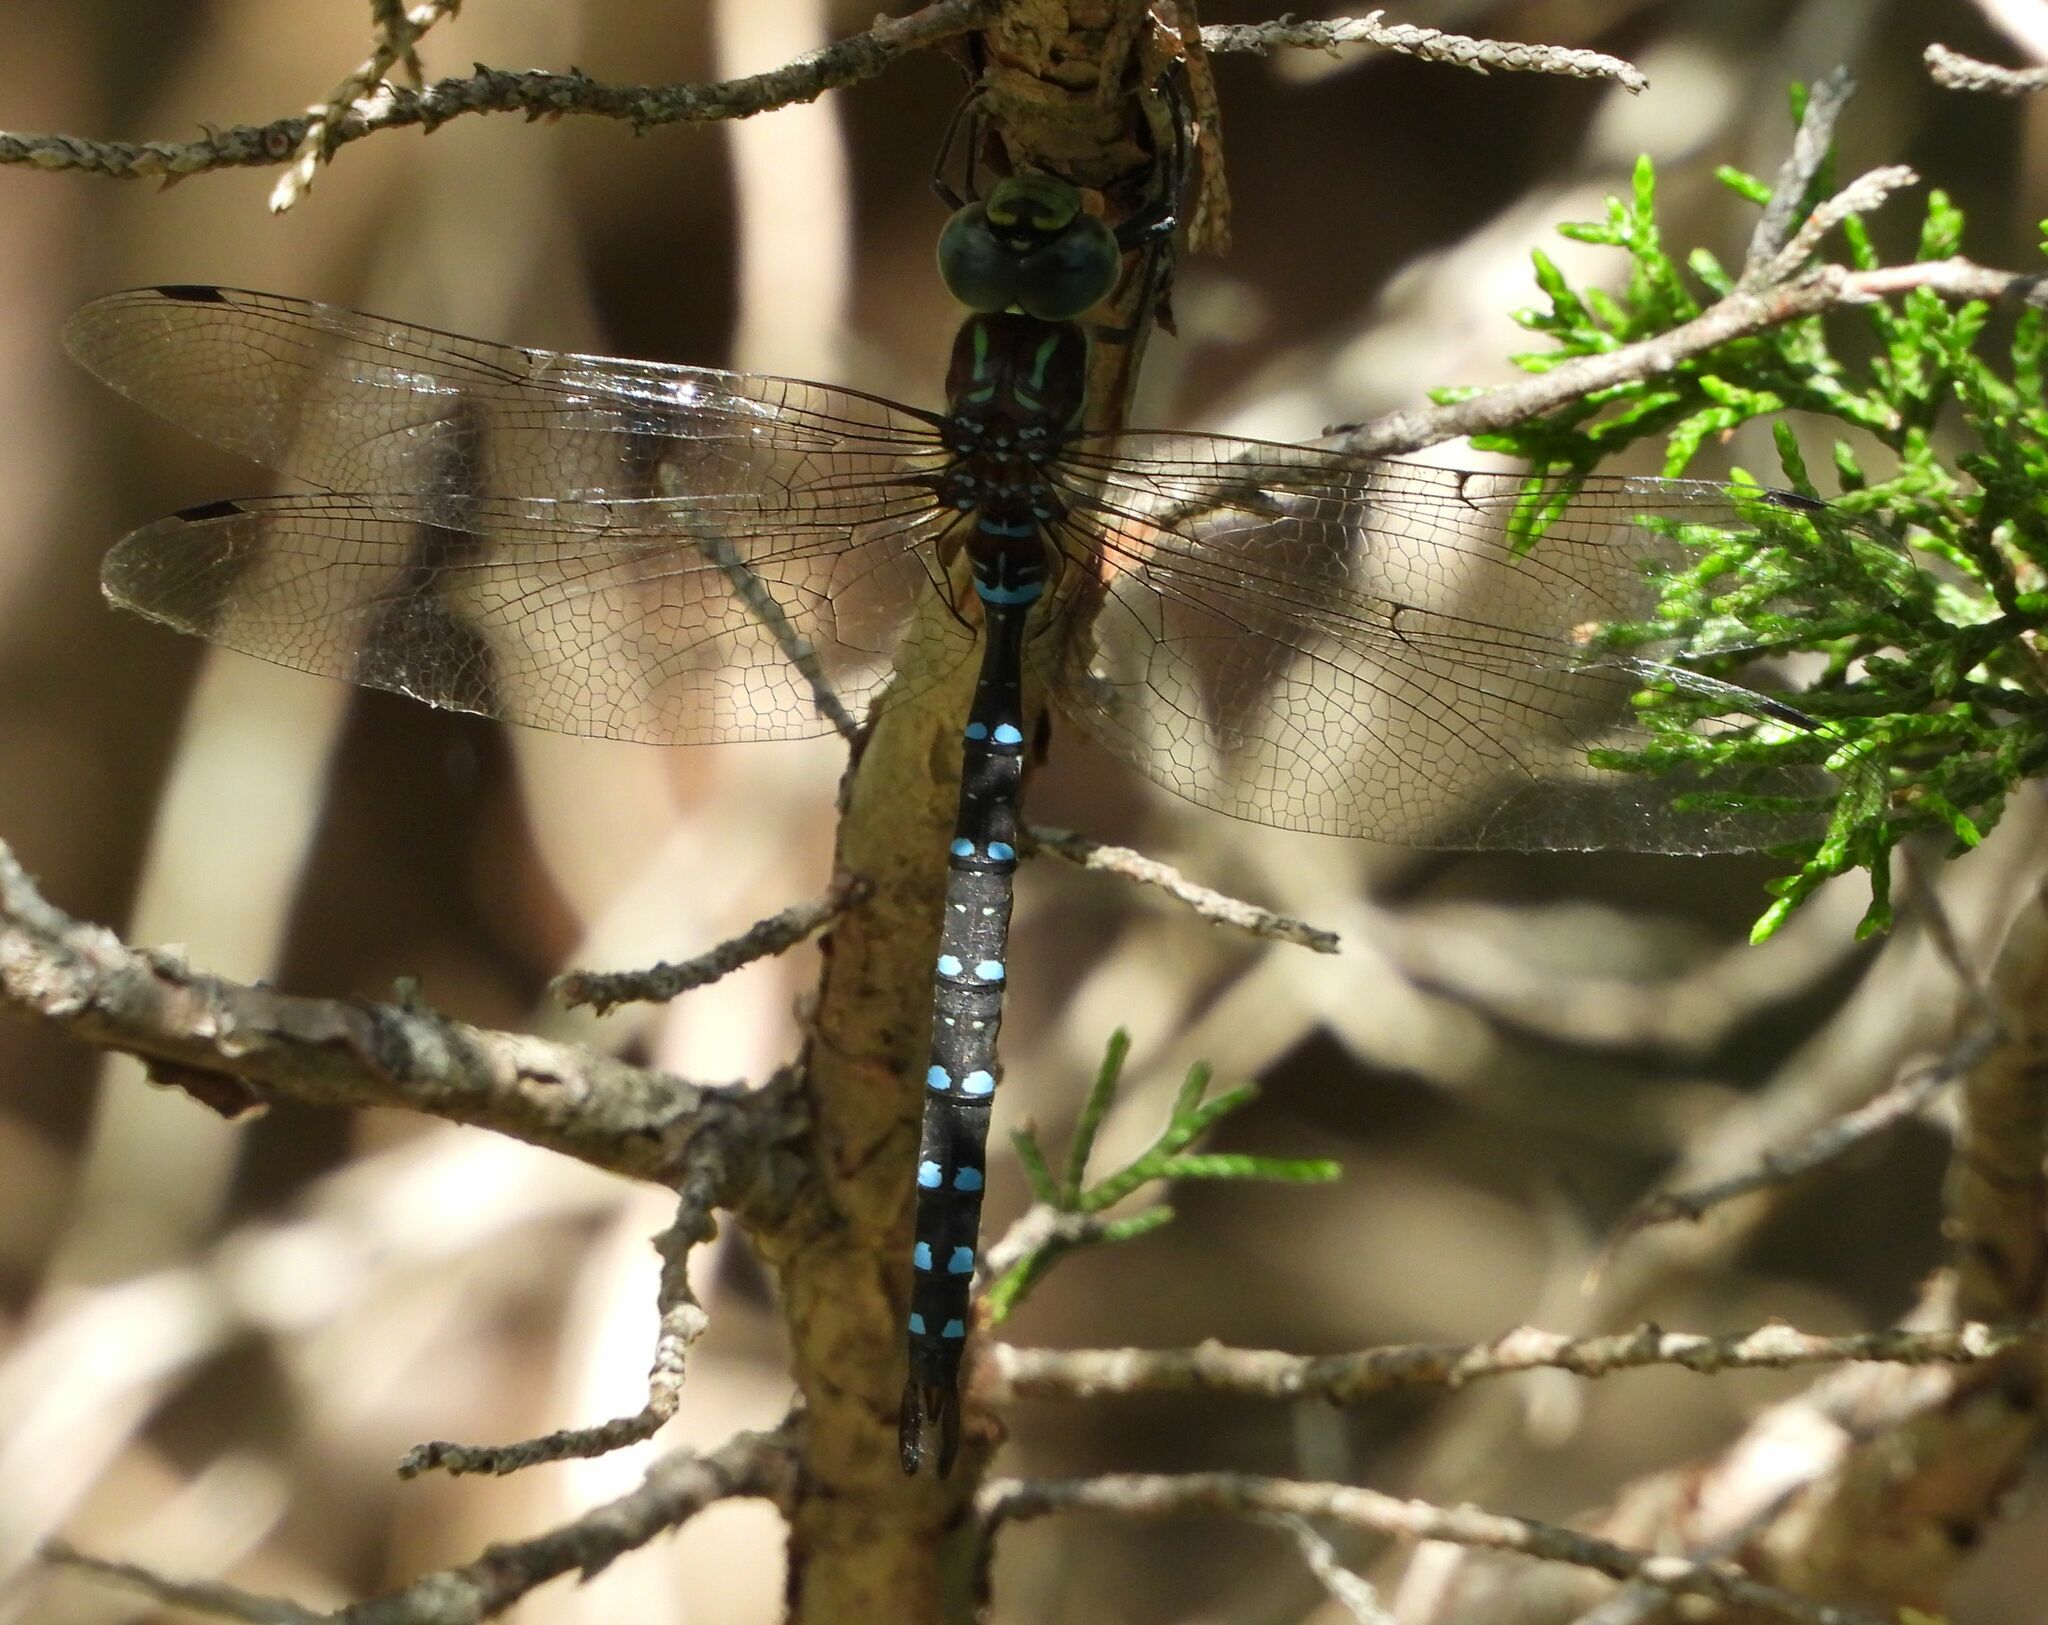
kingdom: Animalia
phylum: Arthropoda
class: Insecta
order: Odonata
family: Aeshnidae
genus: Aeshna
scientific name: Aeshna tuberculifera
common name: Aeschne à tubercules
